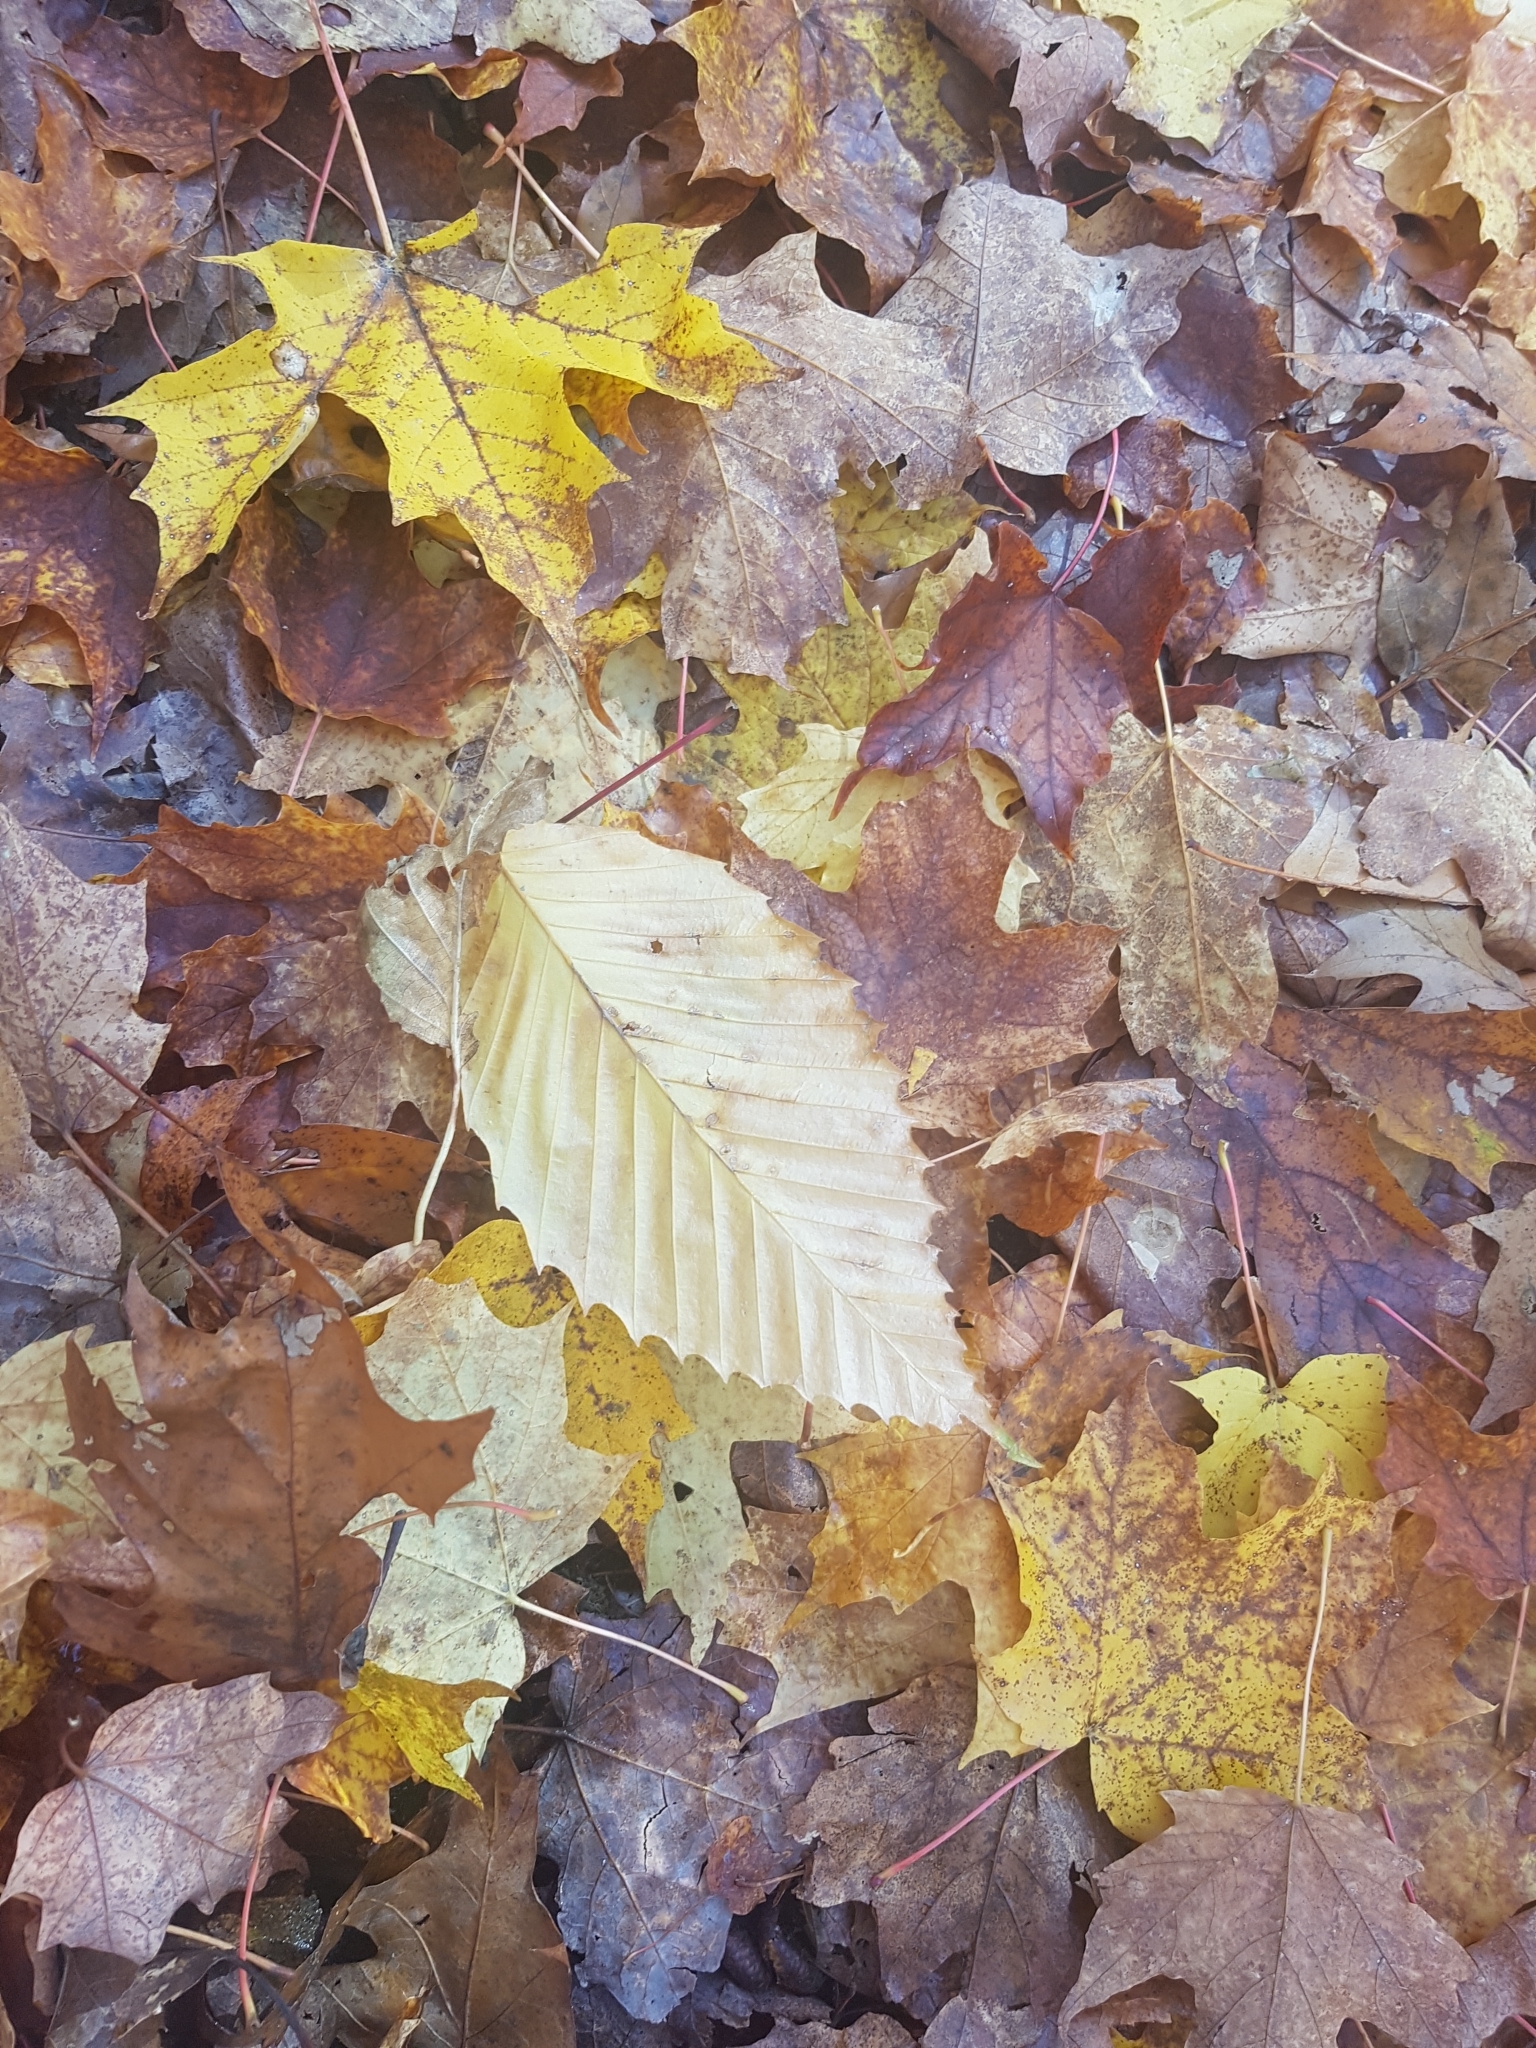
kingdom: Plantae
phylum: Tracheophyta
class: Magnoliopsida
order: Fagales
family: Fagaceae
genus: Fagus
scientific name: Fagus grandifolia
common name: American beech
